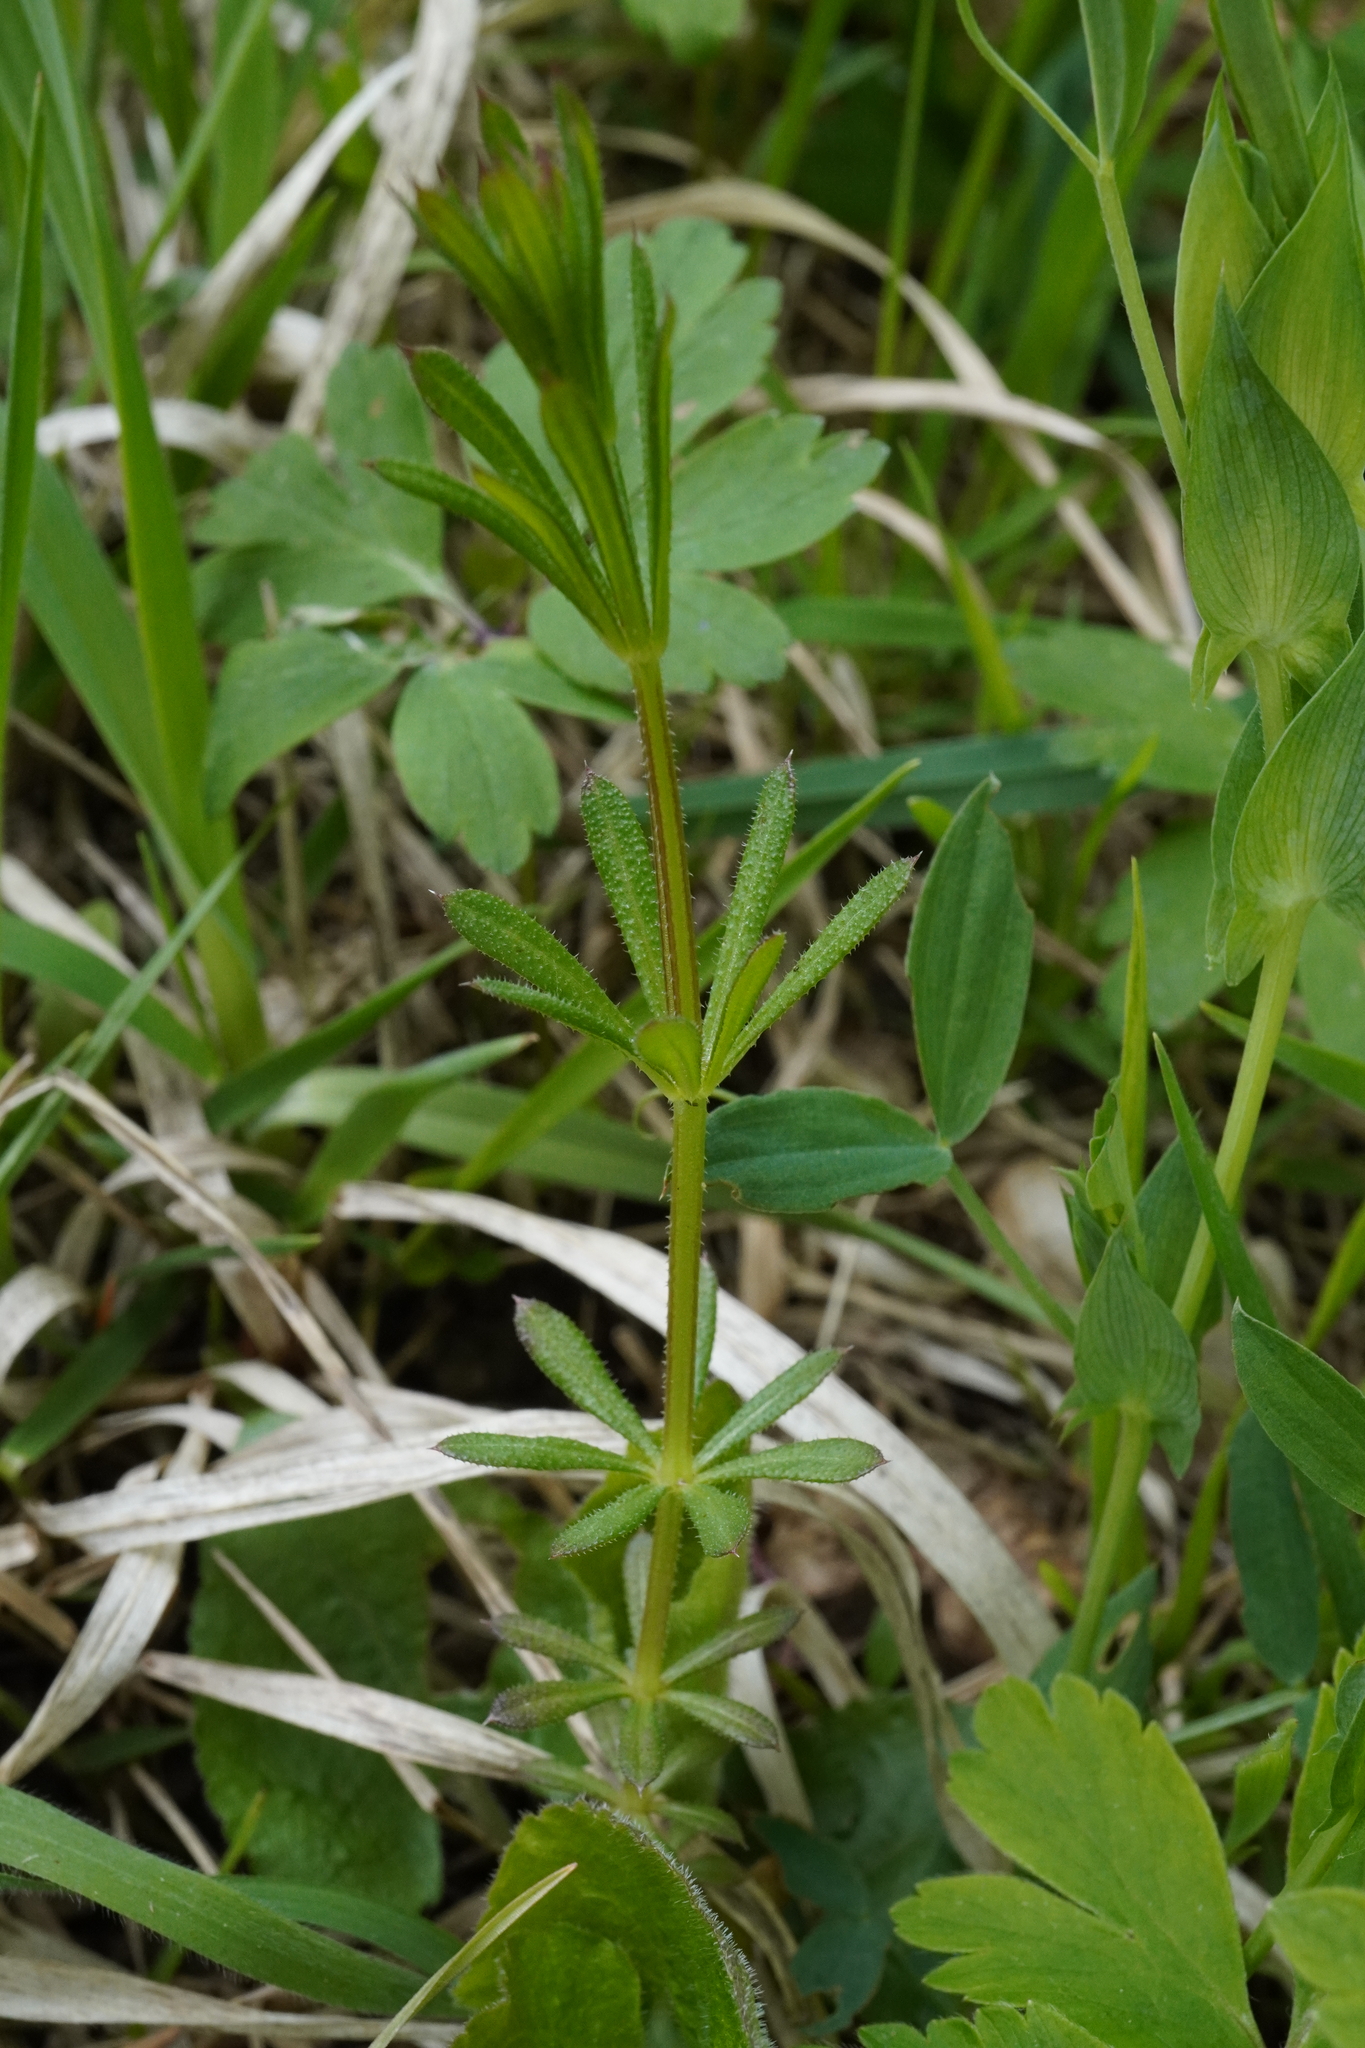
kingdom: Plantae
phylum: Tracheophyta
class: Magnoliopsida
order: Gentianales
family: Rubiaceae
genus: Galium
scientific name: Galium aparine
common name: Cleavers
